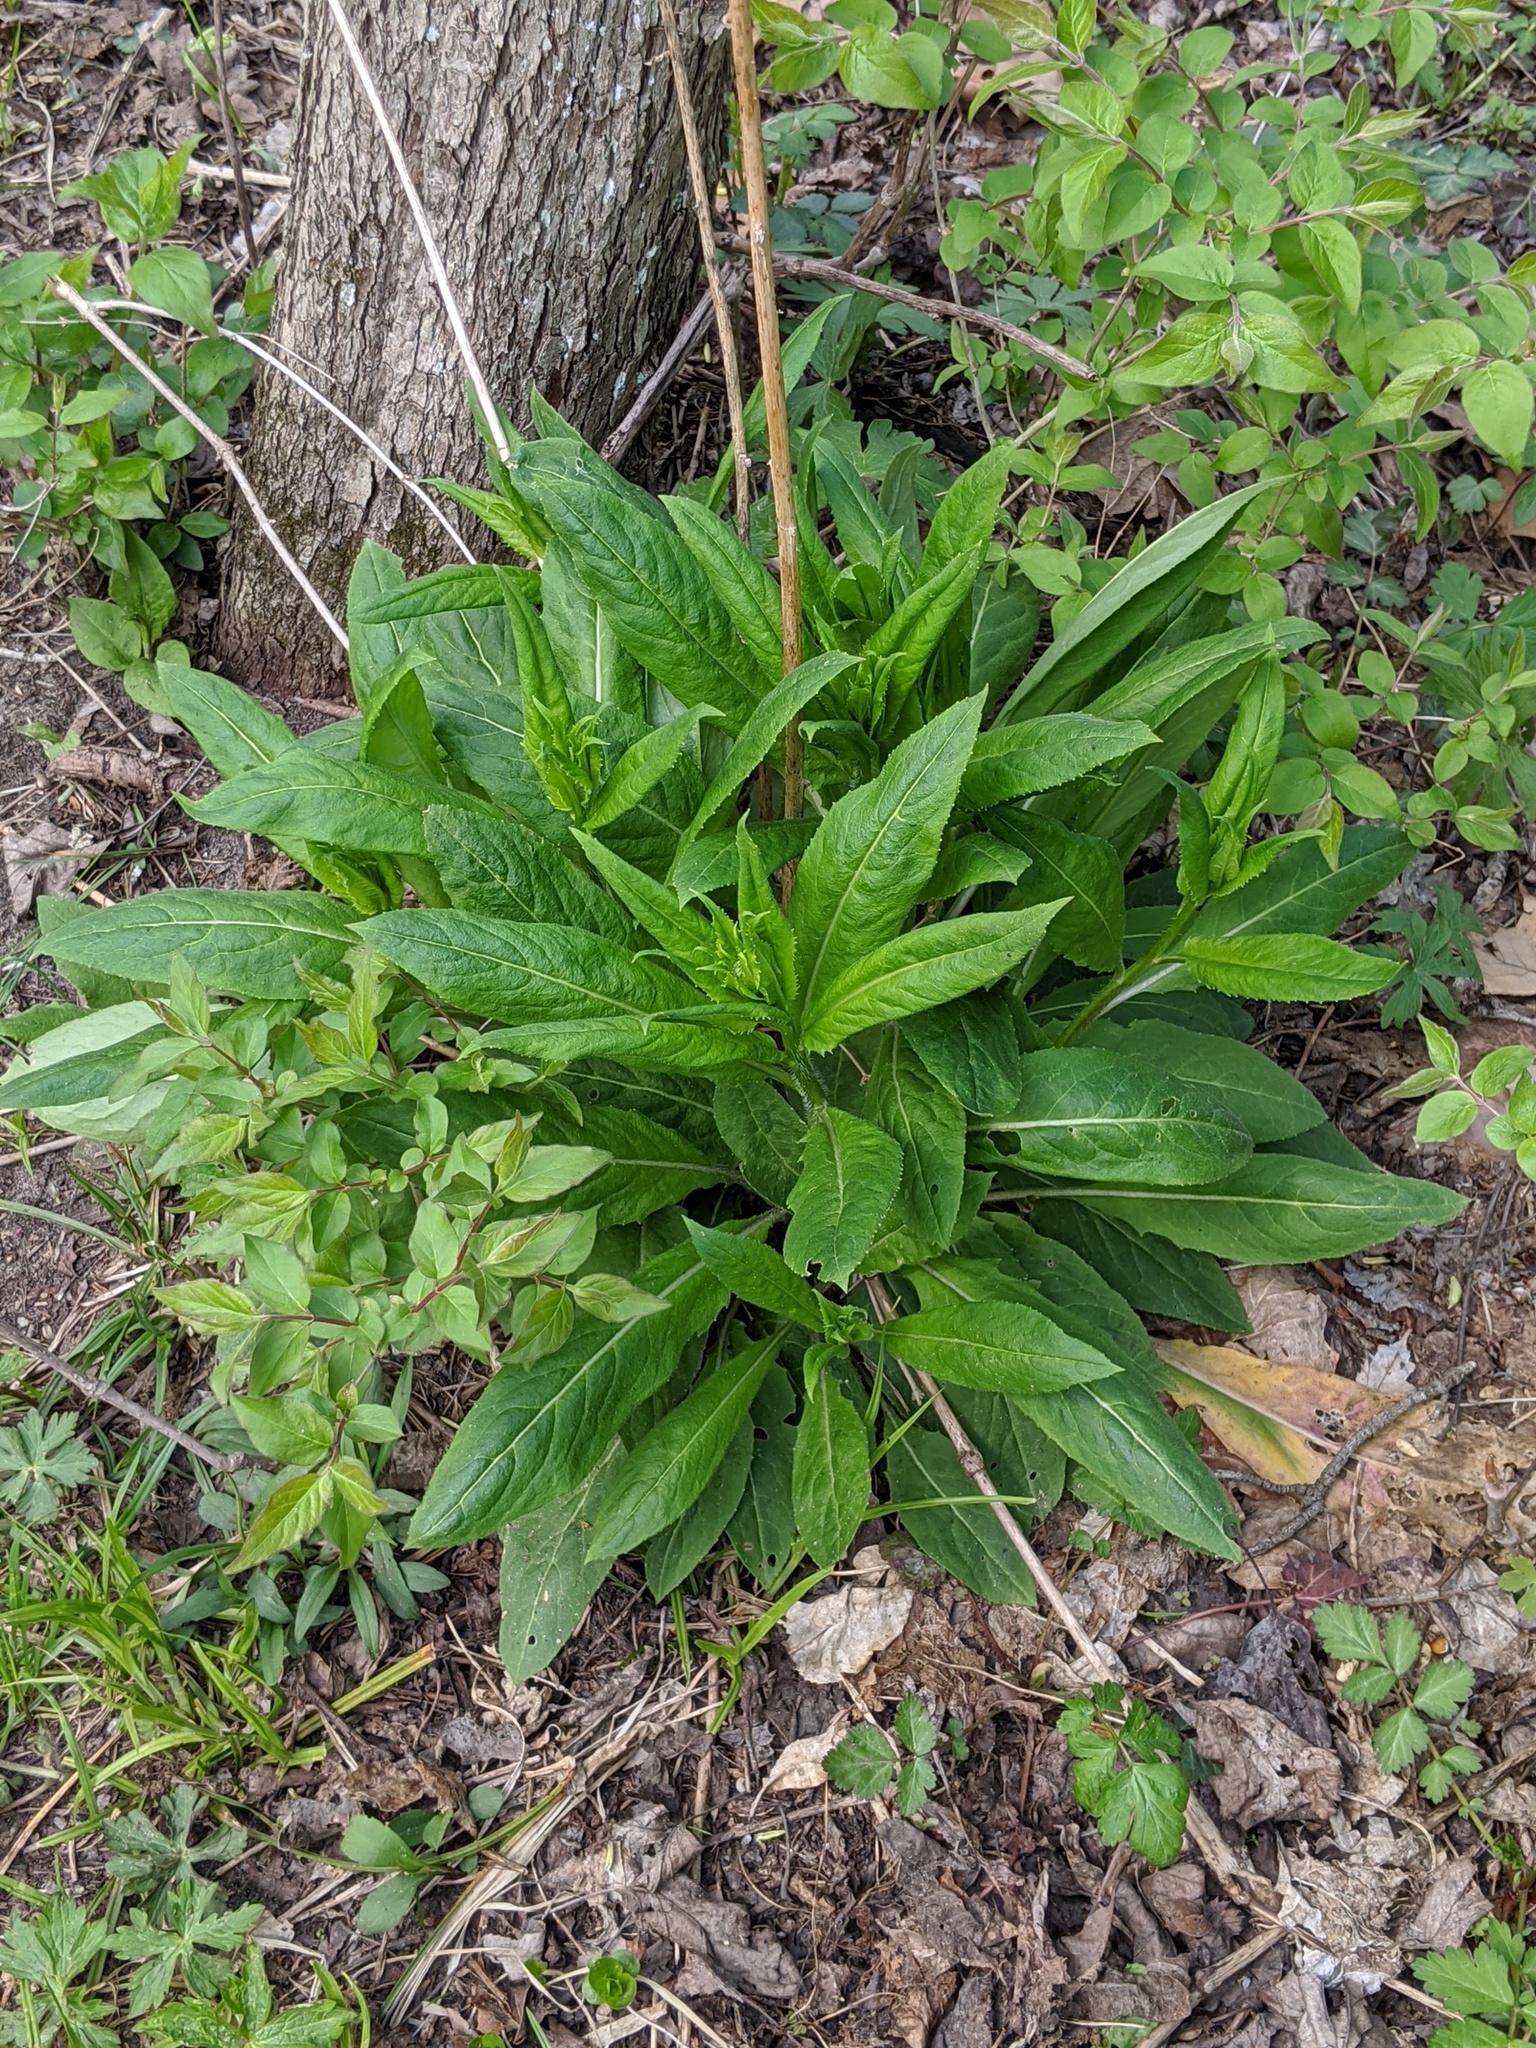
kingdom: Plantae
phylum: Tracheophyta
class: Magnoliopsida
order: Brassicales
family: Brassicaceae
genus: Hesperis
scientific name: Hesperis matronalis
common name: Dame's-violet
